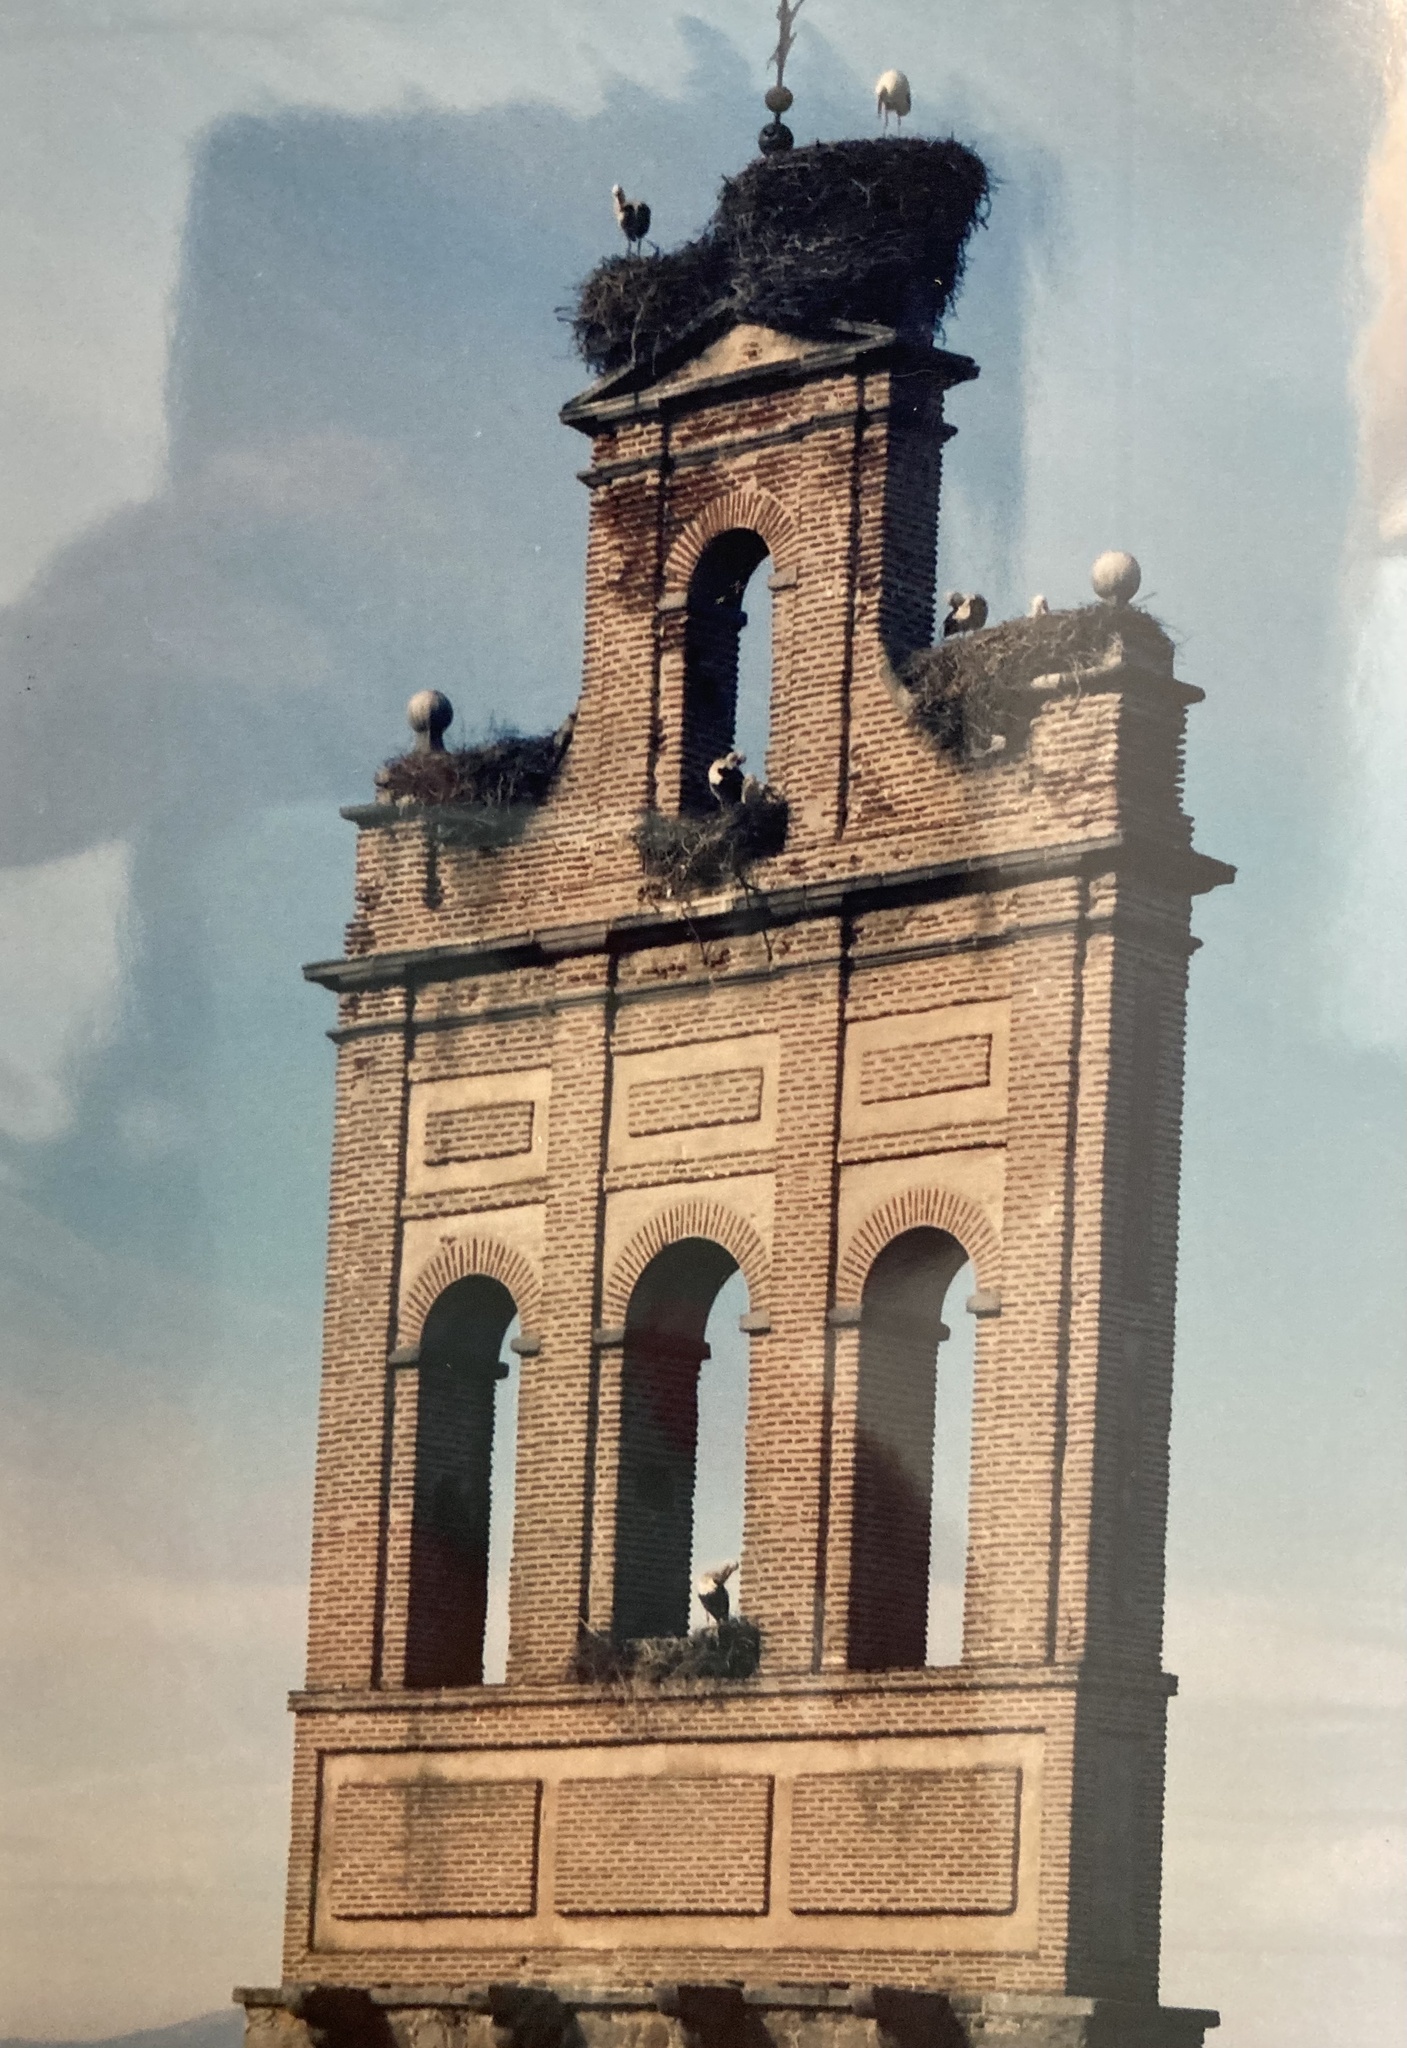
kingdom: Animalia
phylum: Chordata
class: Aves
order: Ciconiiformes
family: Ciconiidae
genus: Ciconia
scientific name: Ciconia ciconia
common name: White stork
